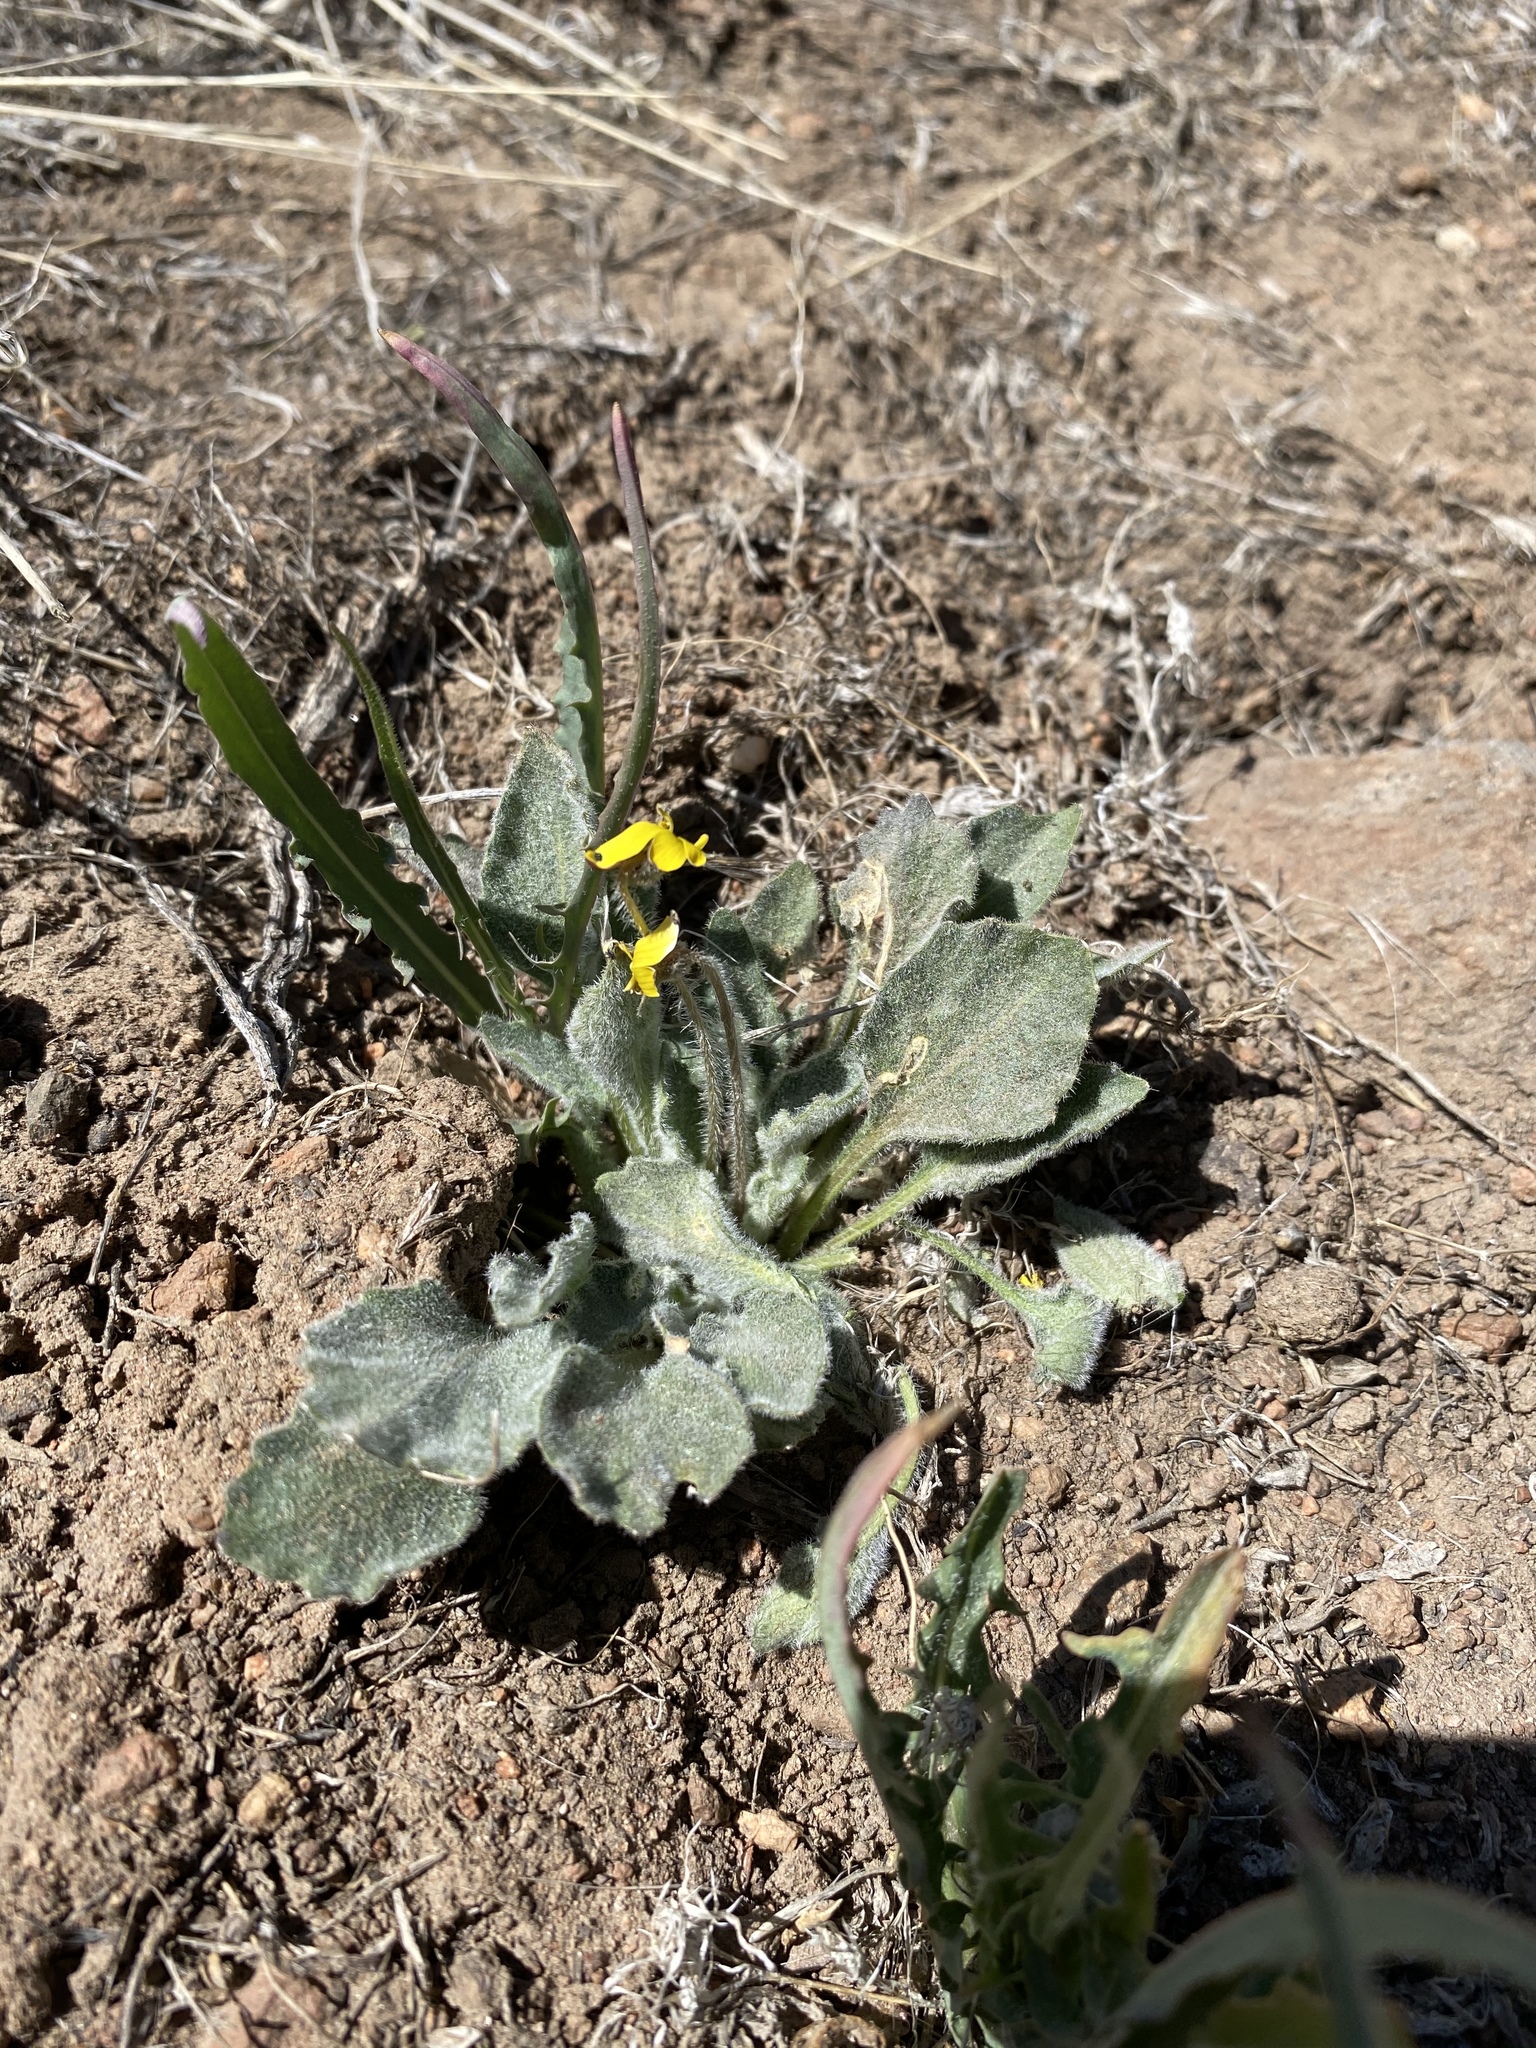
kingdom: Plantae
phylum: Tracheophyta
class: Magnoliopsida
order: Malpighiales
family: Violaceae
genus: Viola
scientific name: Viola aurea
